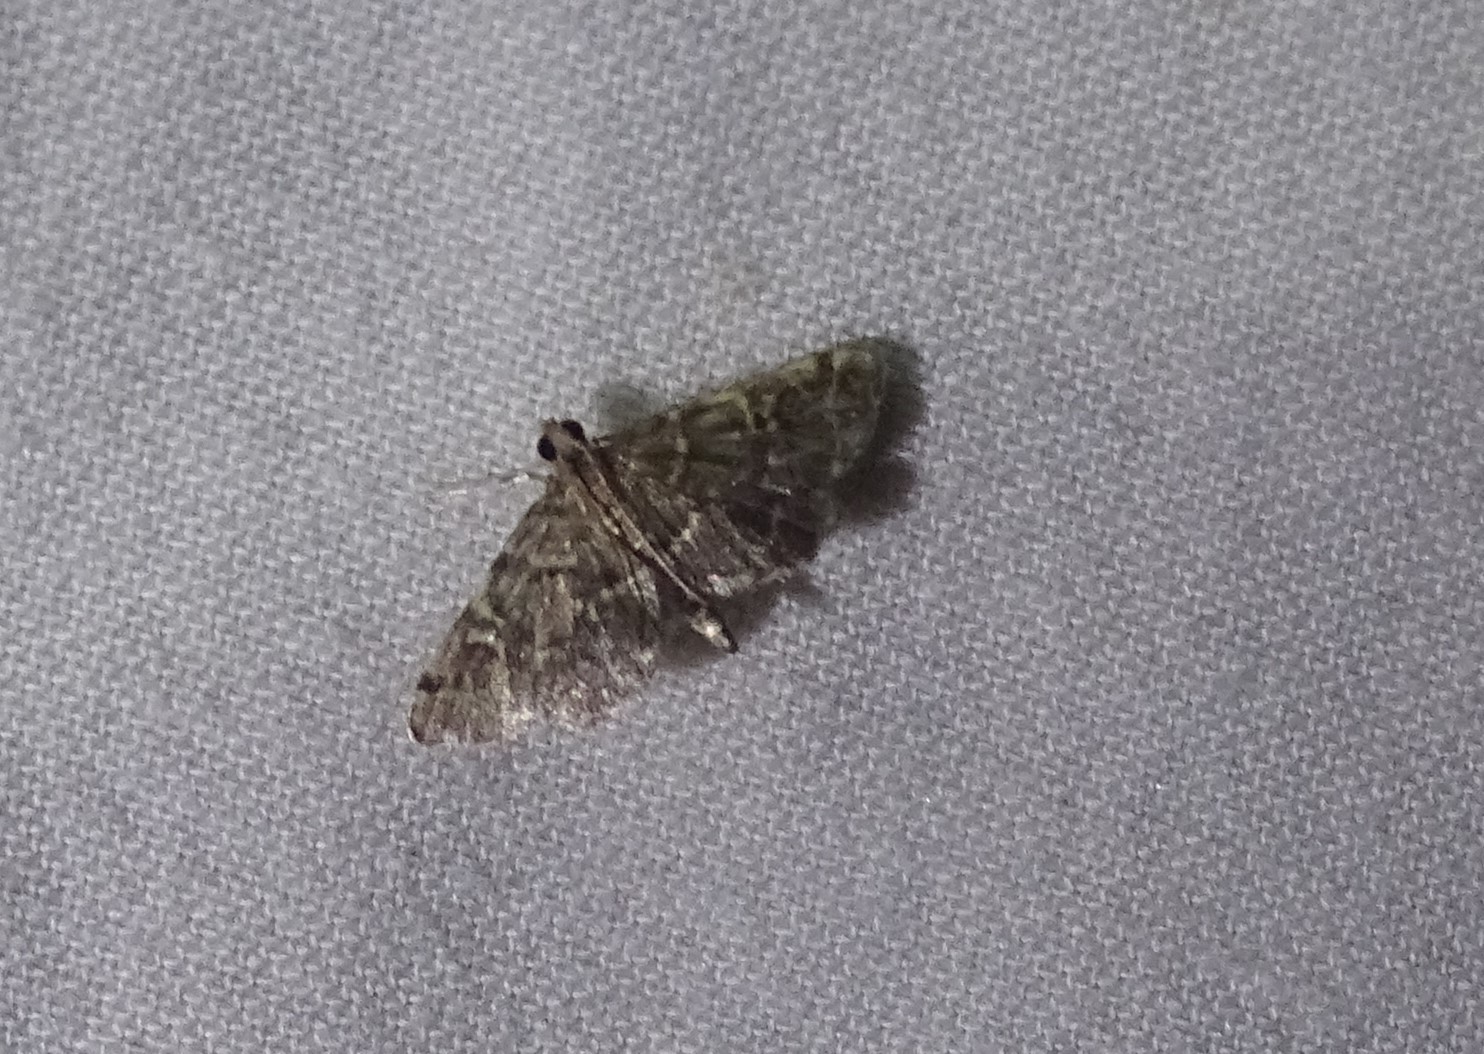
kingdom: Animalia
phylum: Arthropoda
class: Insecta
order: Lepidoptera
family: Crambidae
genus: Anageshna
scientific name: Anageshna primordialis
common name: Yellow-spotted webworm moth
